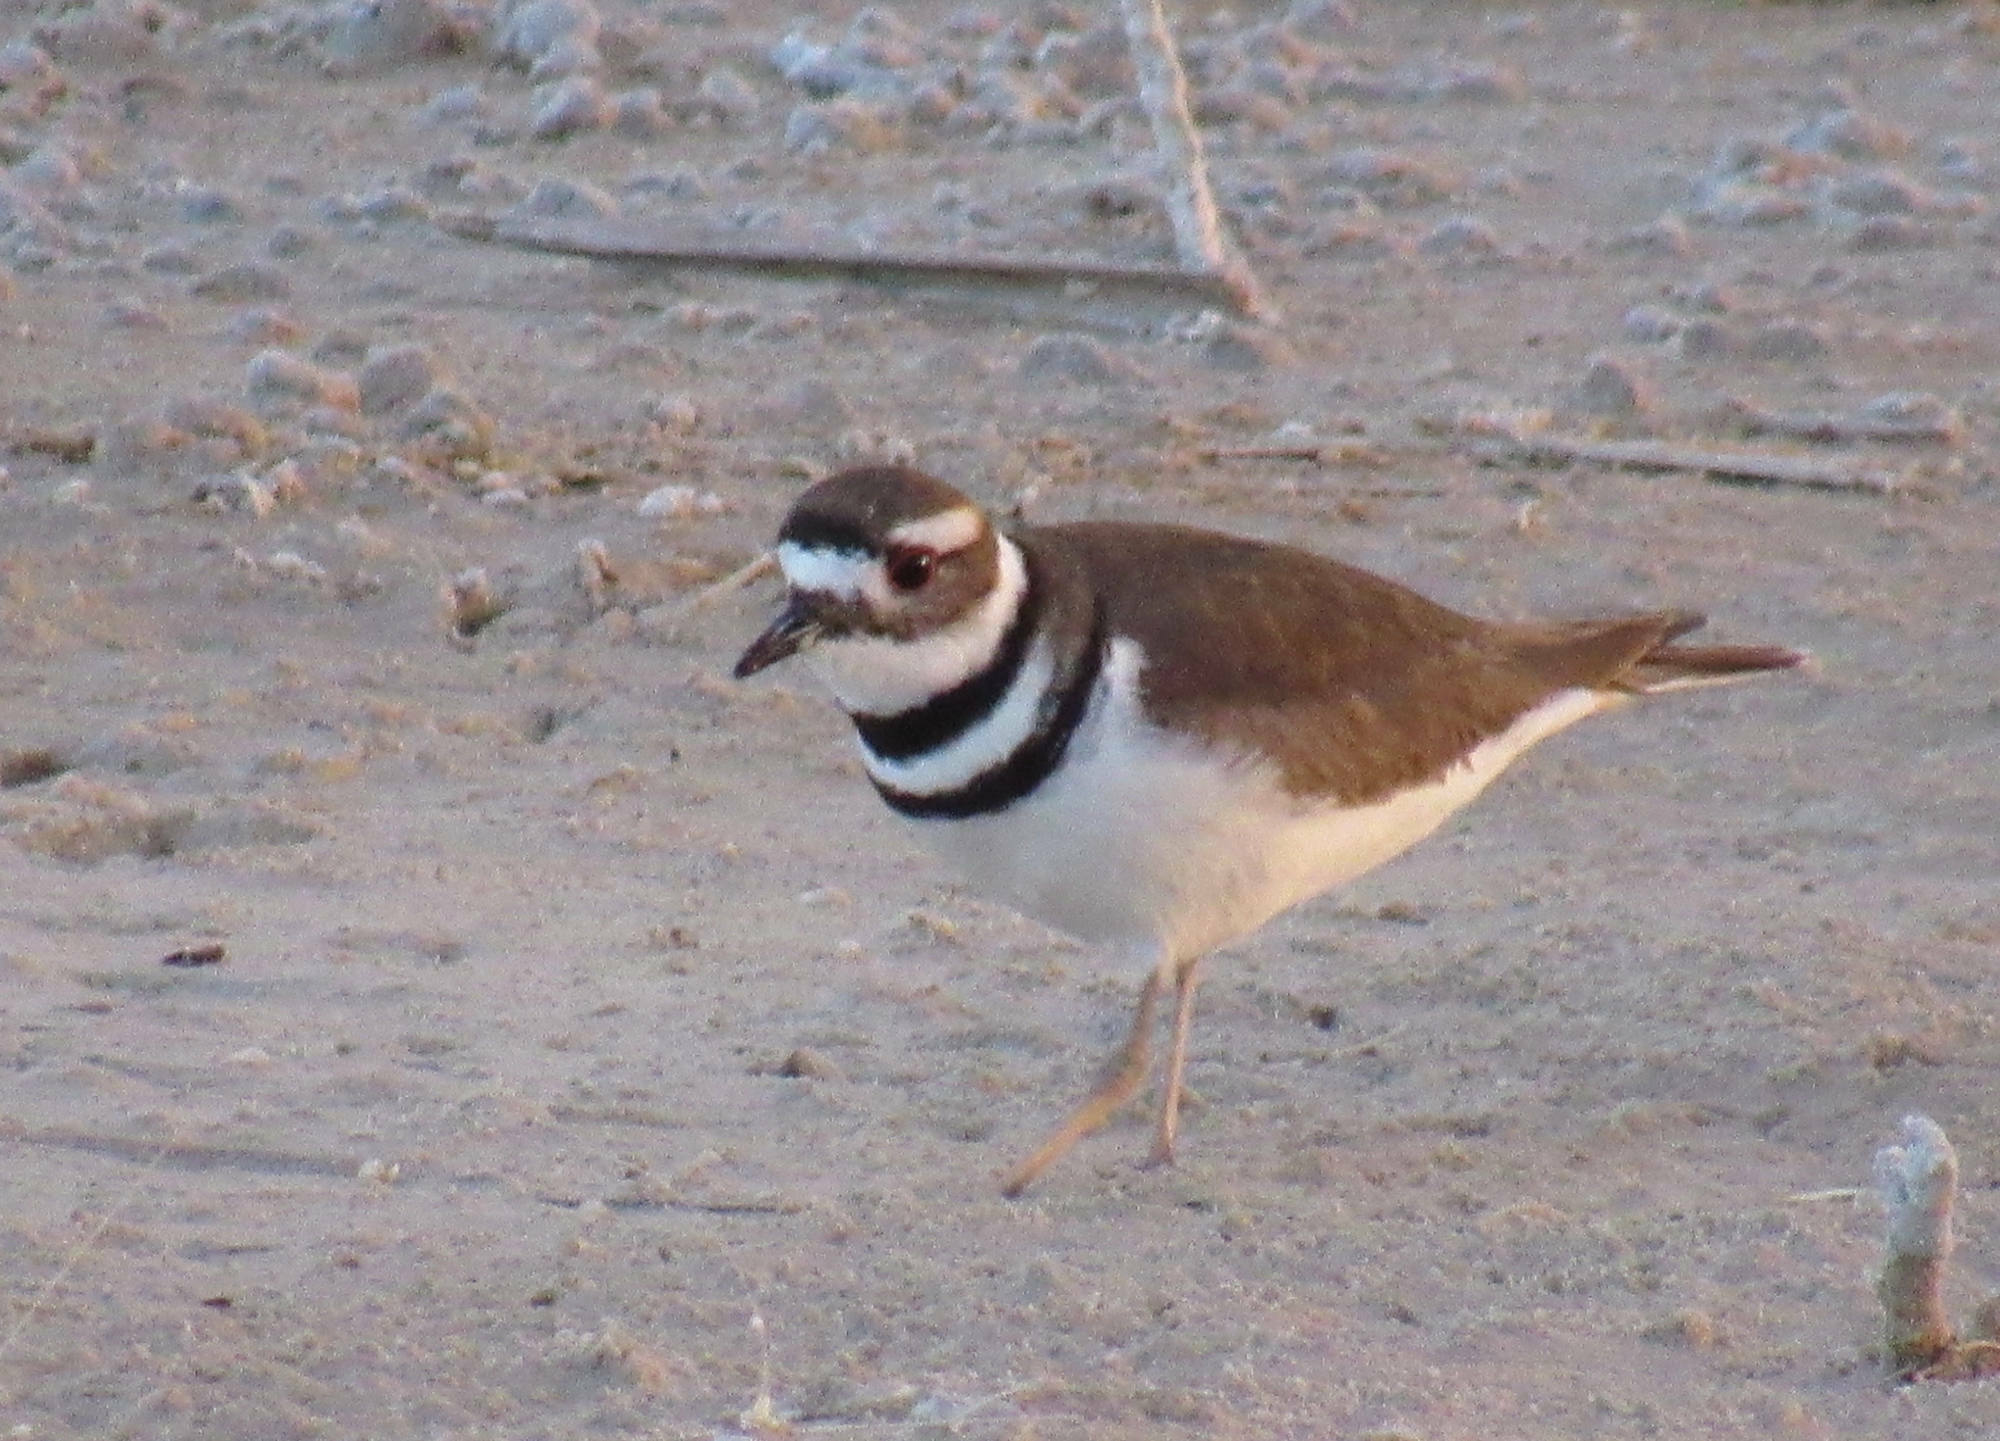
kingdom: Animalia
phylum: Chordata
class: Aves
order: Charadriiformes
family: Charadriidae
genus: Charadrius
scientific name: Charadrius vociferus
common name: Killdeer
